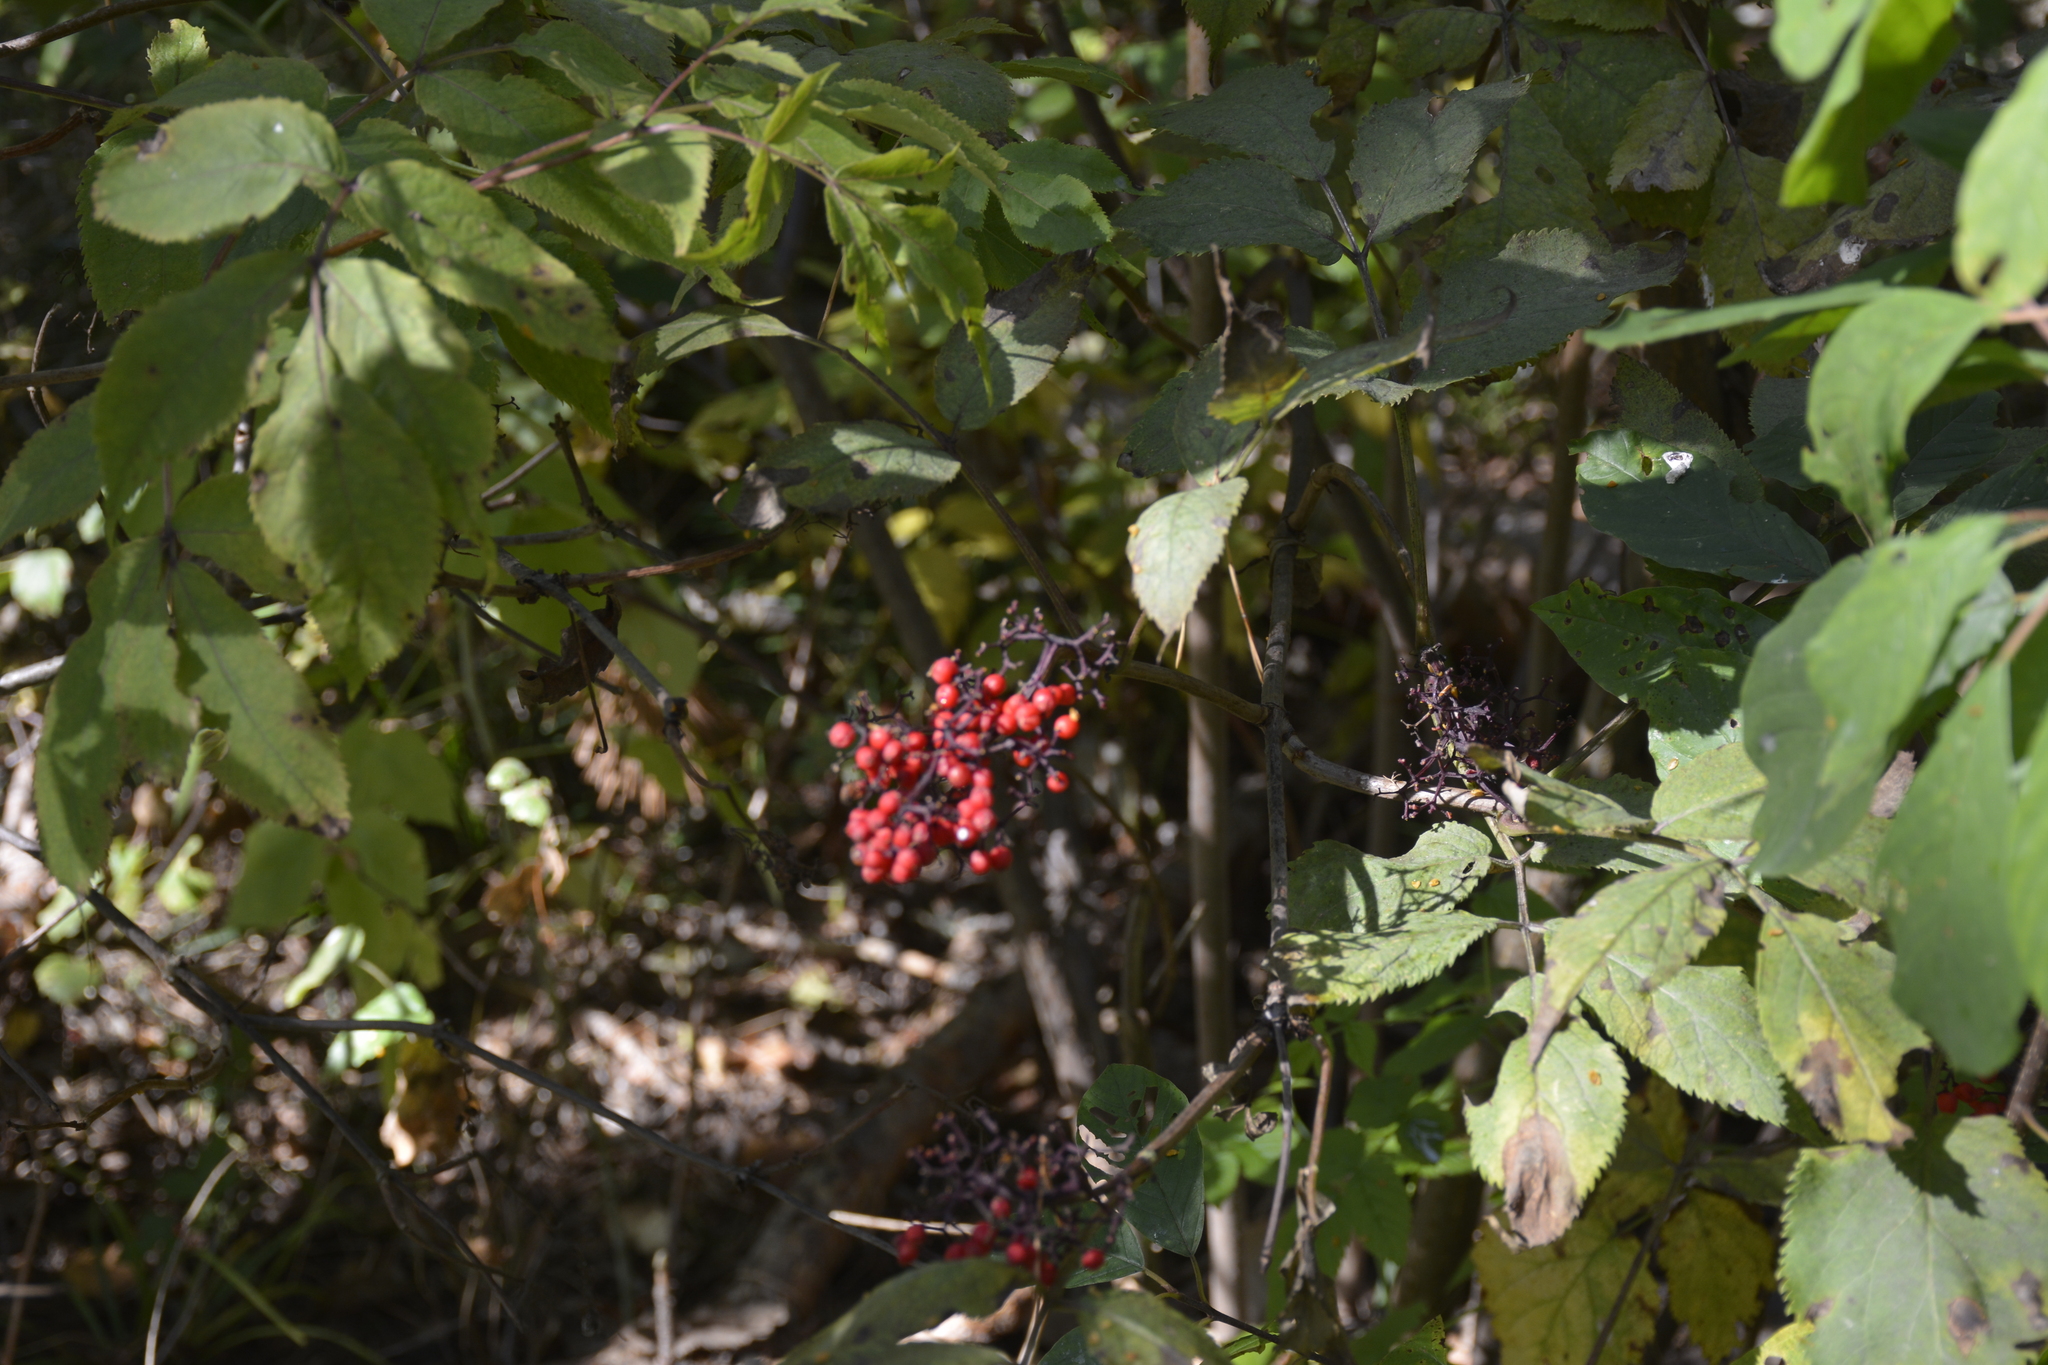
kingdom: Plantae
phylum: Tracheophyta
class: Magnoliopsida
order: Dipsacales
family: Viburnaceae
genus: Sambucus
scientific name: Sambucus racemosa
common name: Red-berried elder
